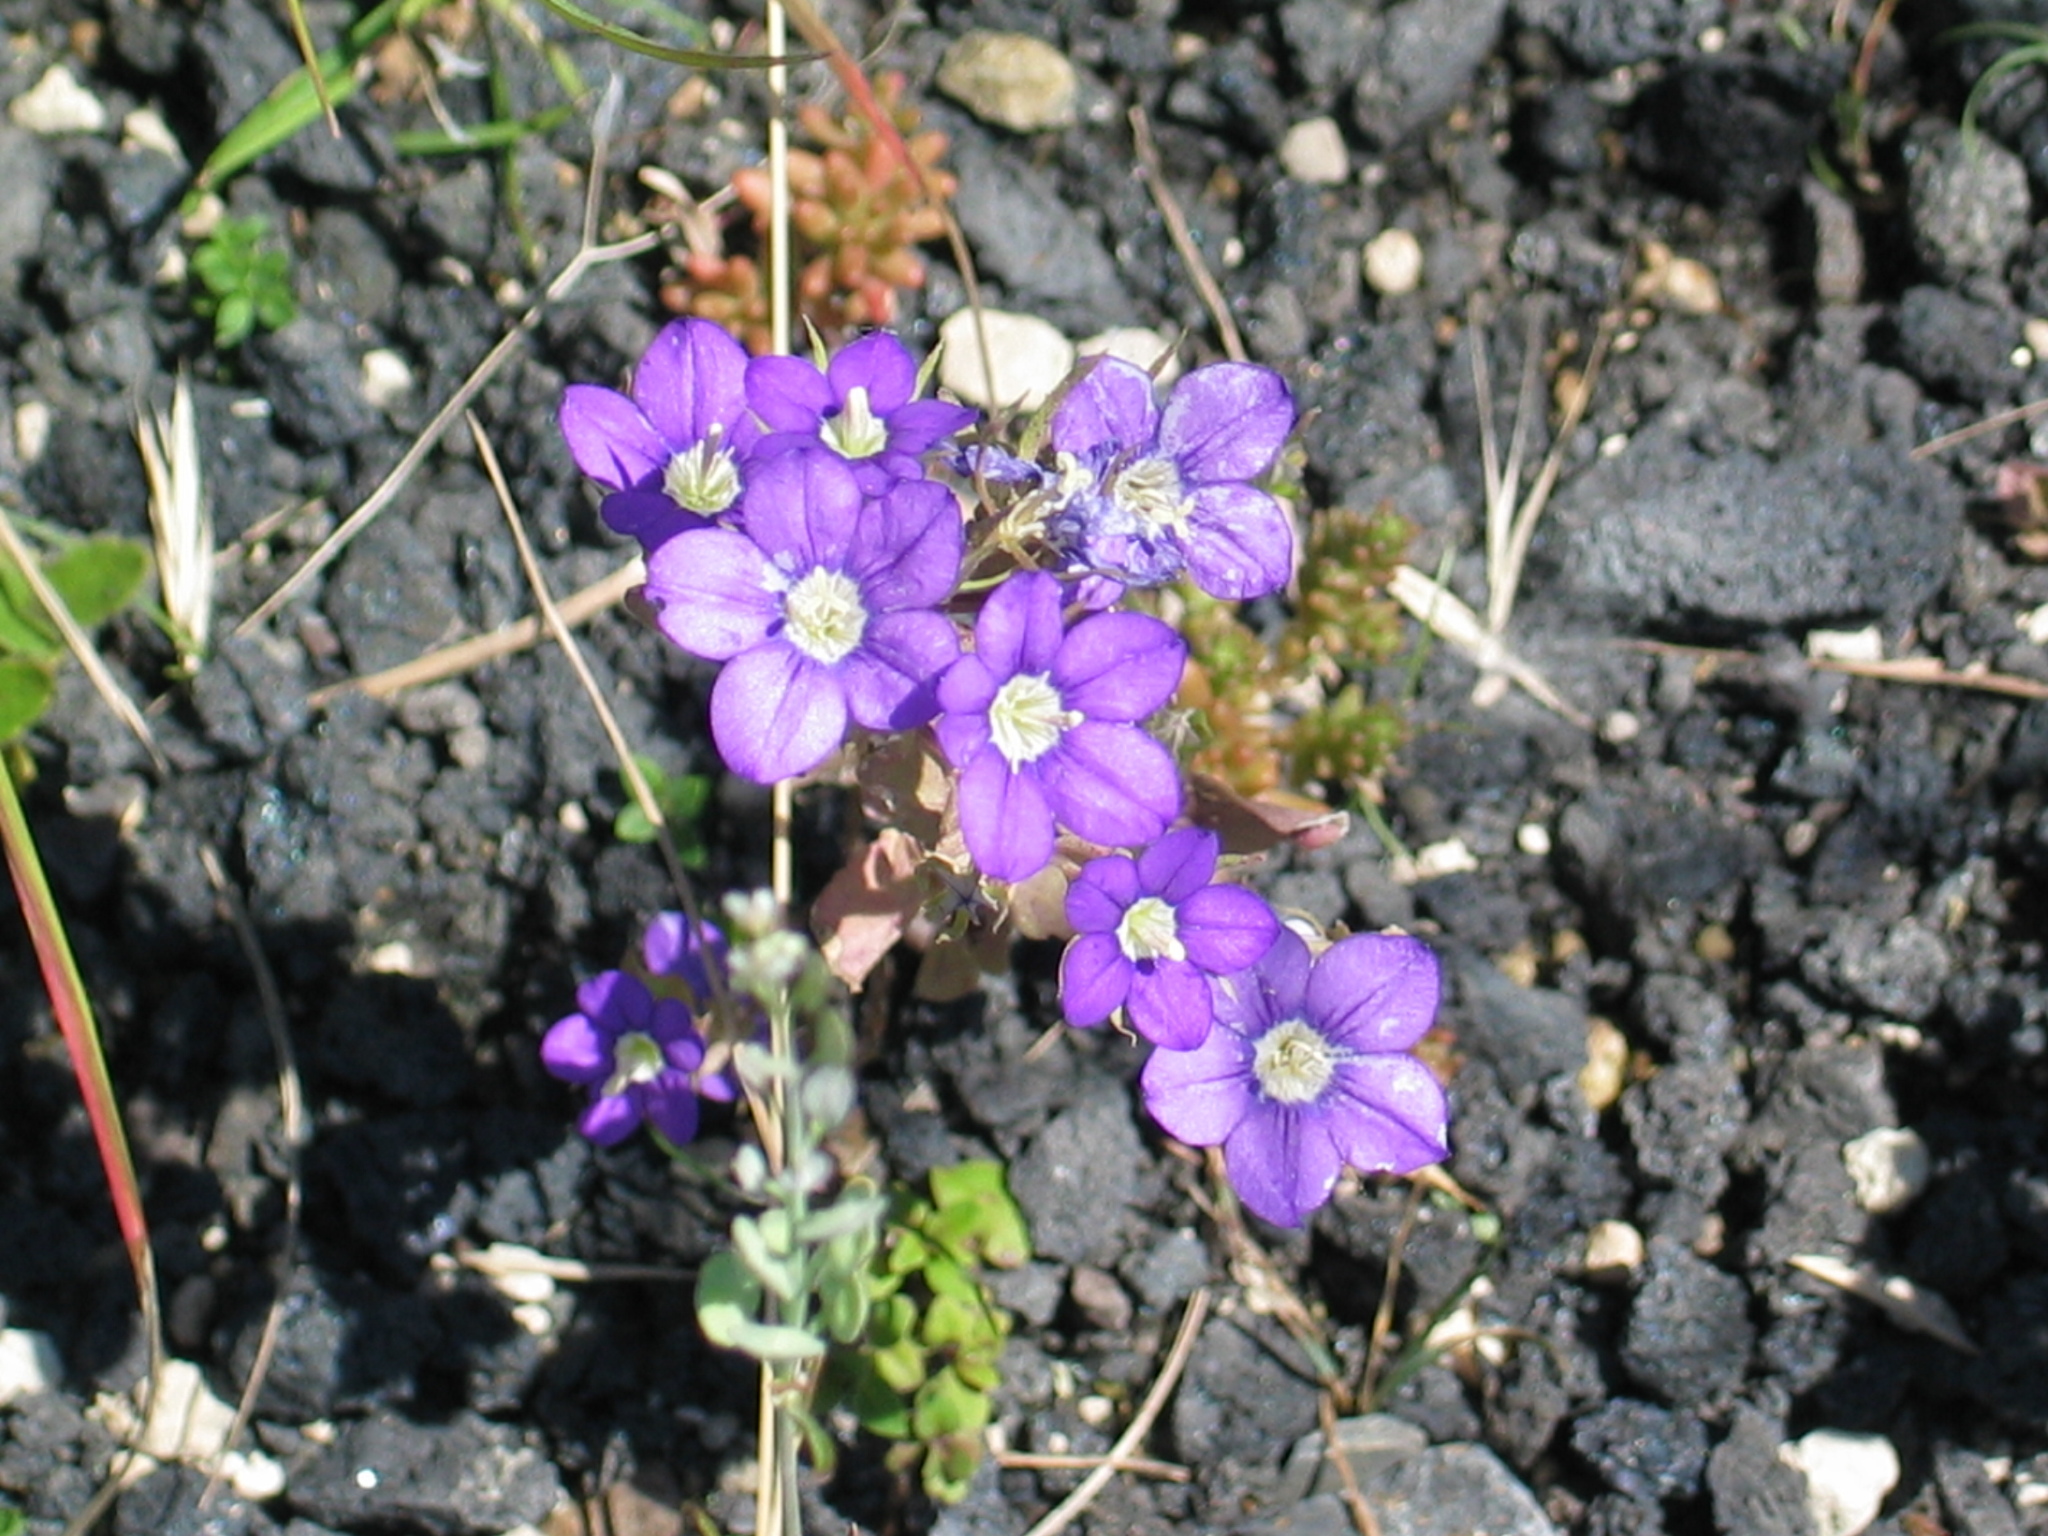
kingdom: Plantae
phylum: Tracheophyta
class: Magnoliopsida
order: Asterales
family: Campanulaceae
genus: Legousia
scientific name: Legousia speculum-veneris
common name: Large venus's-looking-glass
